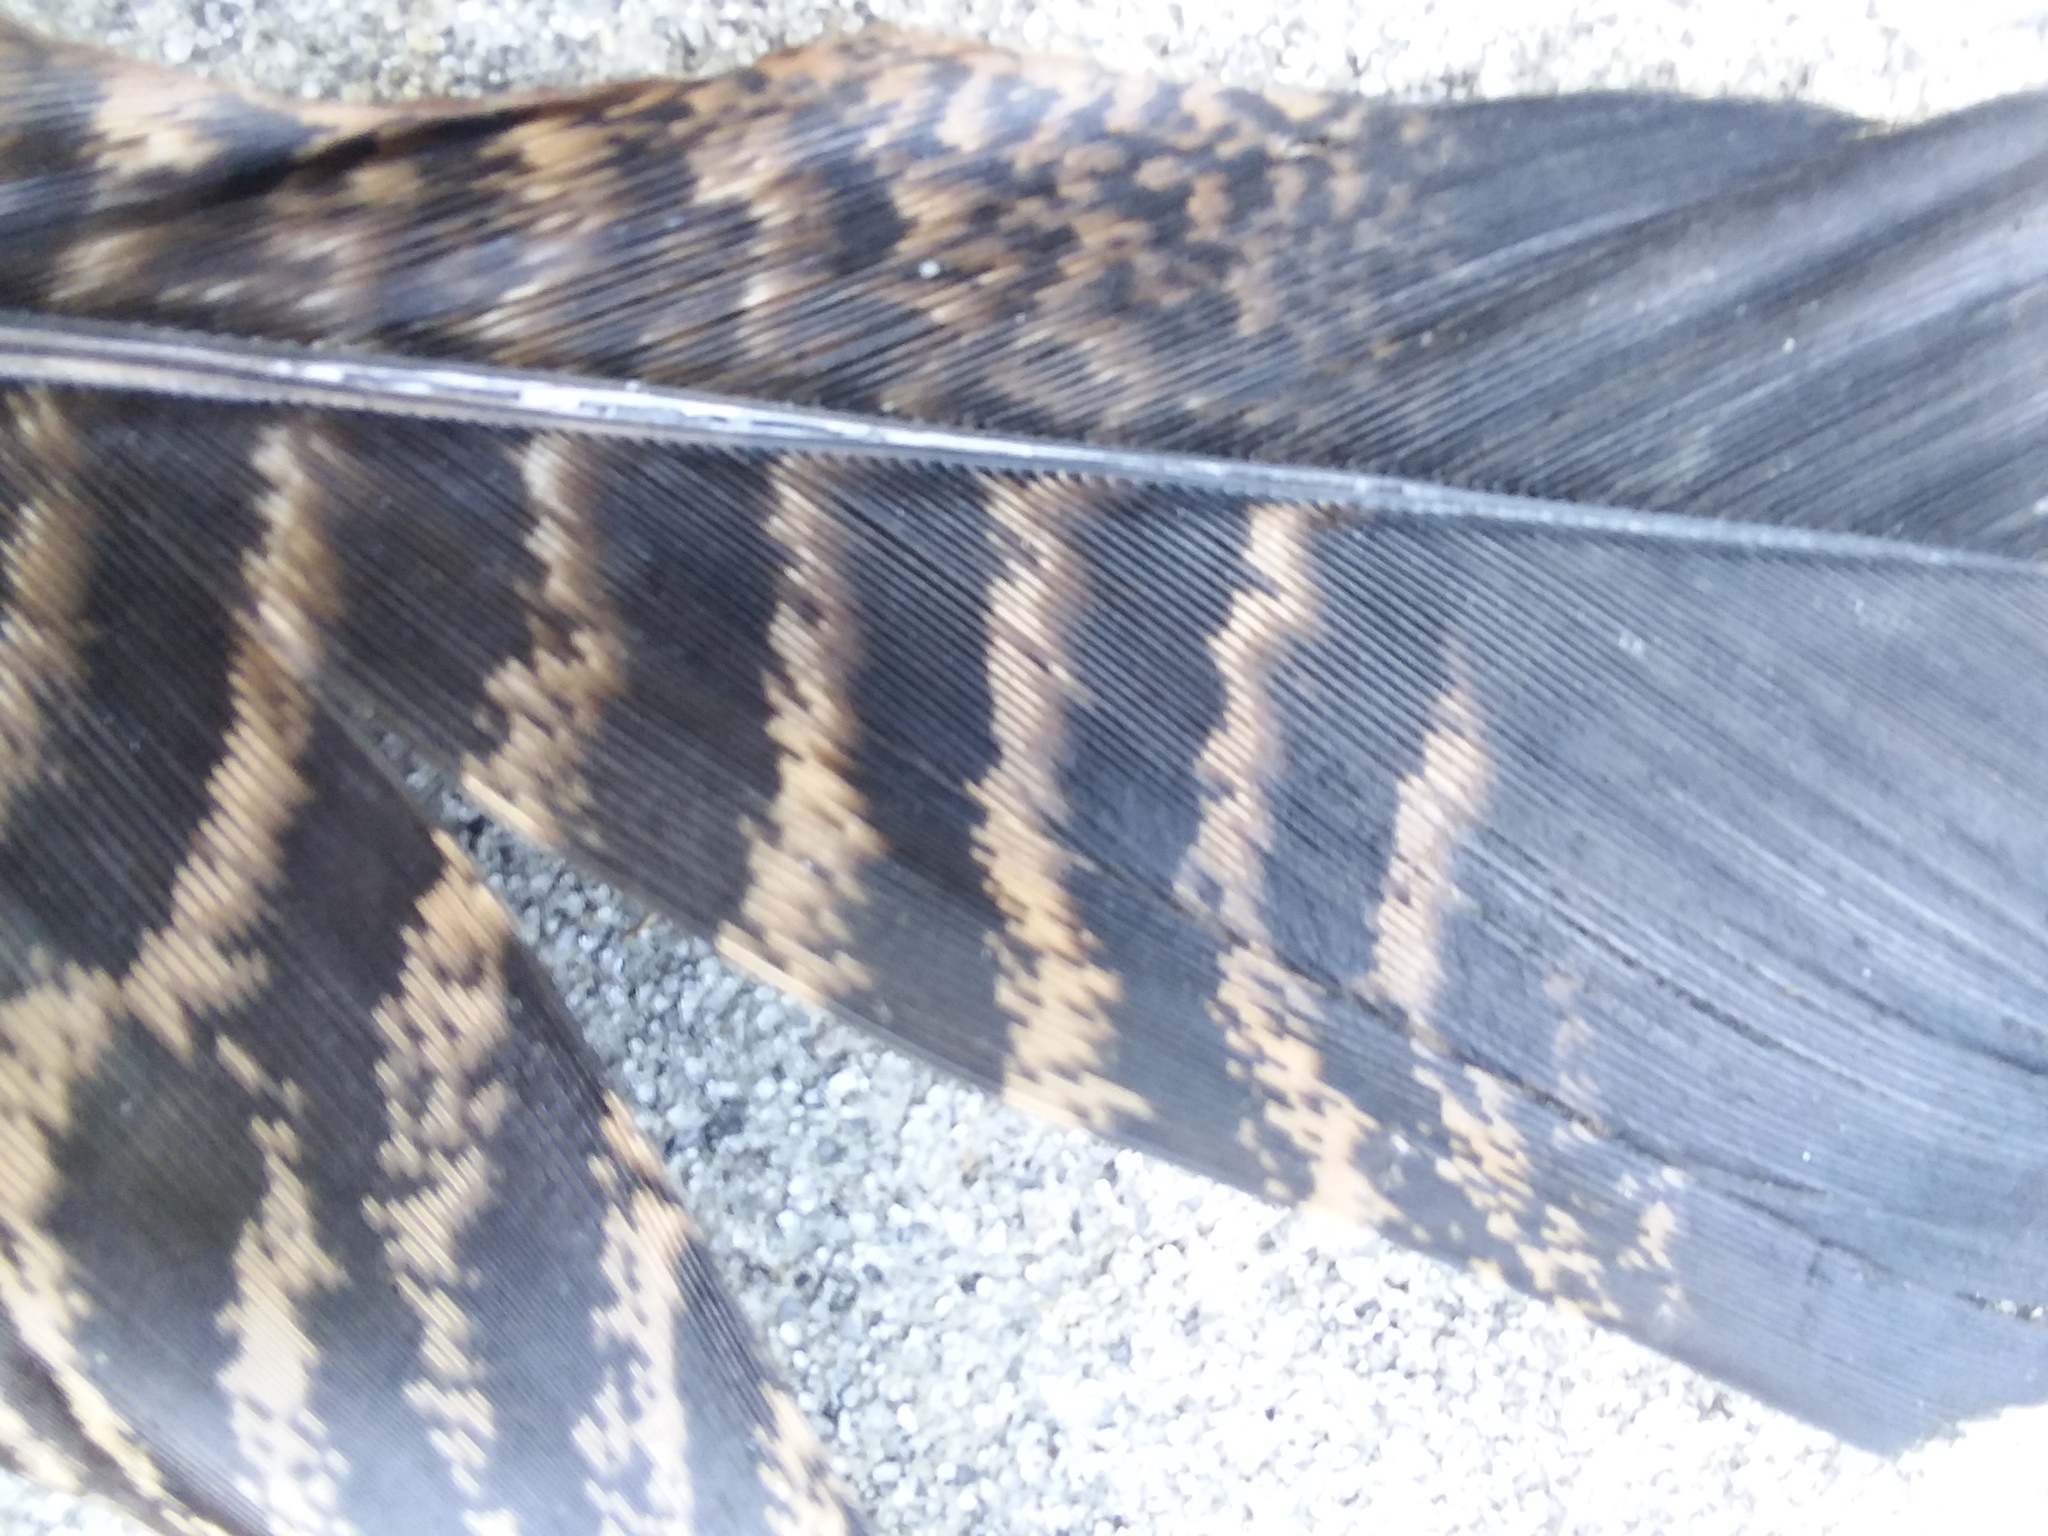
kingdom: Animalia
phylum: Chordata
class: Aves
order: Galliformes
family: Phasianidae
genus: Meleagris
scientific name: Meleagris gallopavo
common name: Wild turkey
